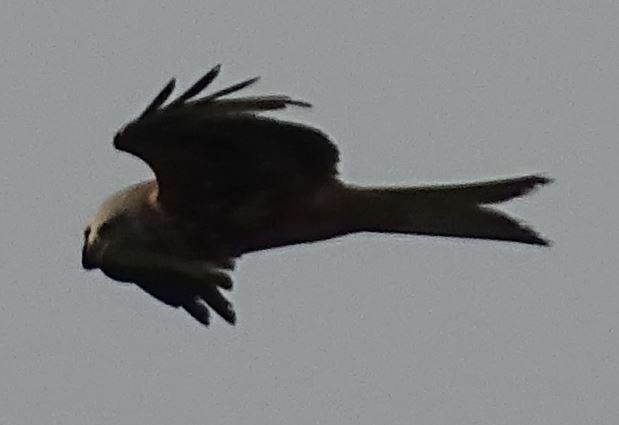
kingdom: Animalia
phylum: Chordata
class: Aves
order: Accipitriformes
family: Accipitridae
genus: Milvus
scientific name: Milvus milvus
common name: Red kite
